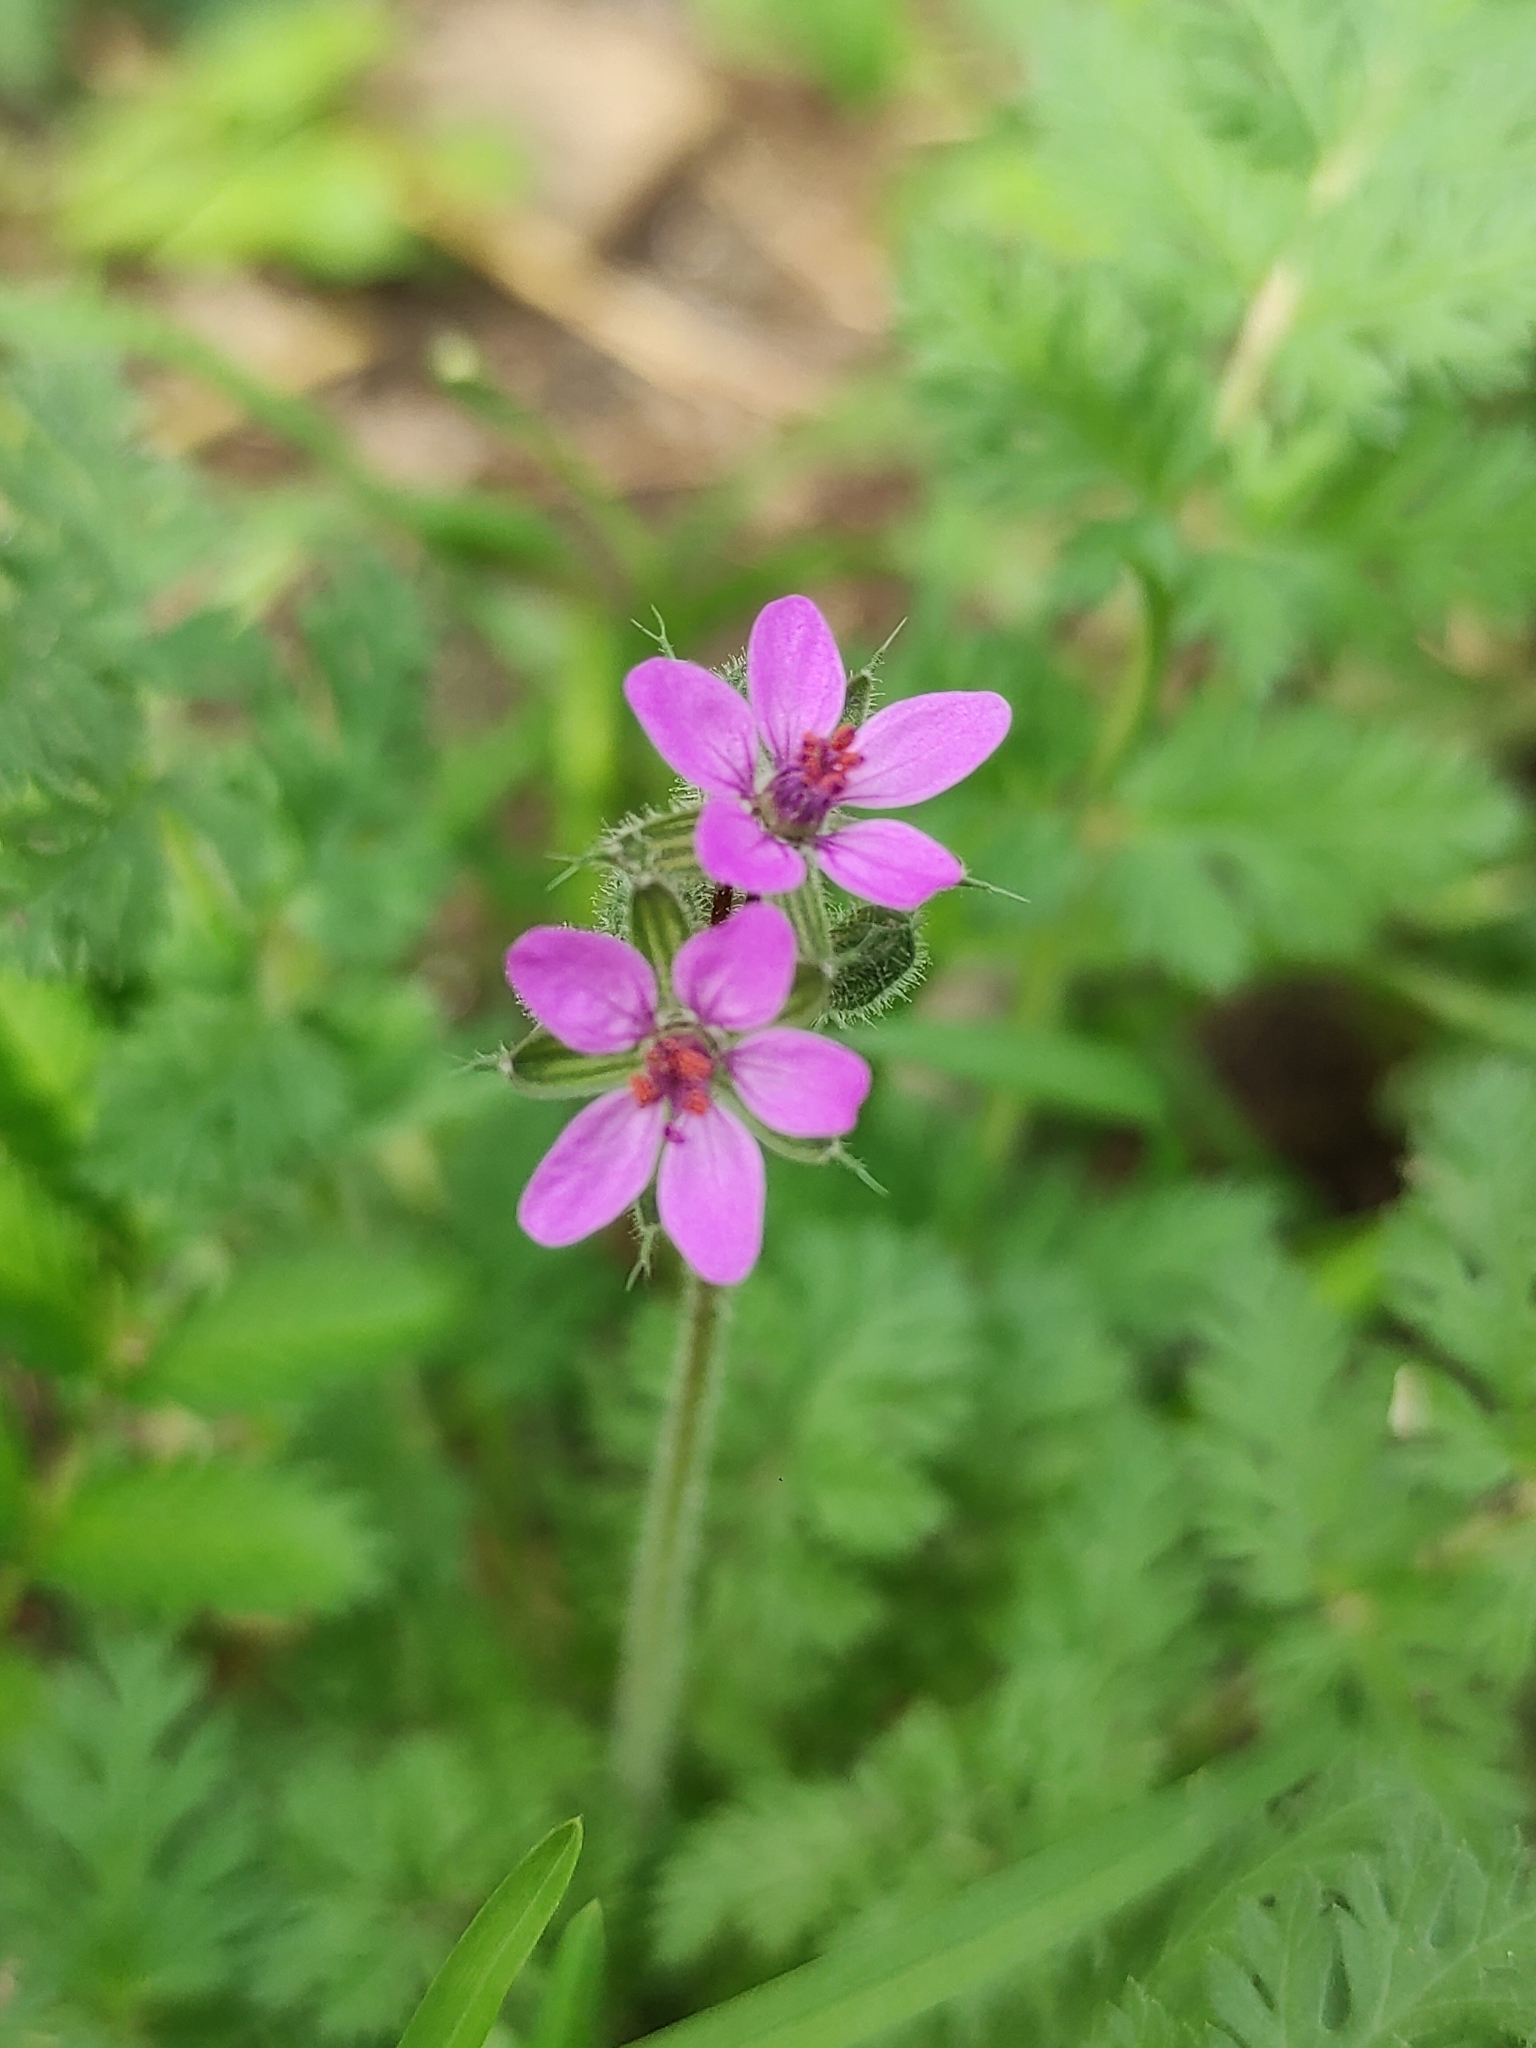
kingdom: Plantae
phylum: Tracheophyta
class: Magnoliopsida
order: Geraniales
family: Geraniaceae
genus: Erodium
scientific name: Erodium cicutarium
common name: Common stork's-bill
